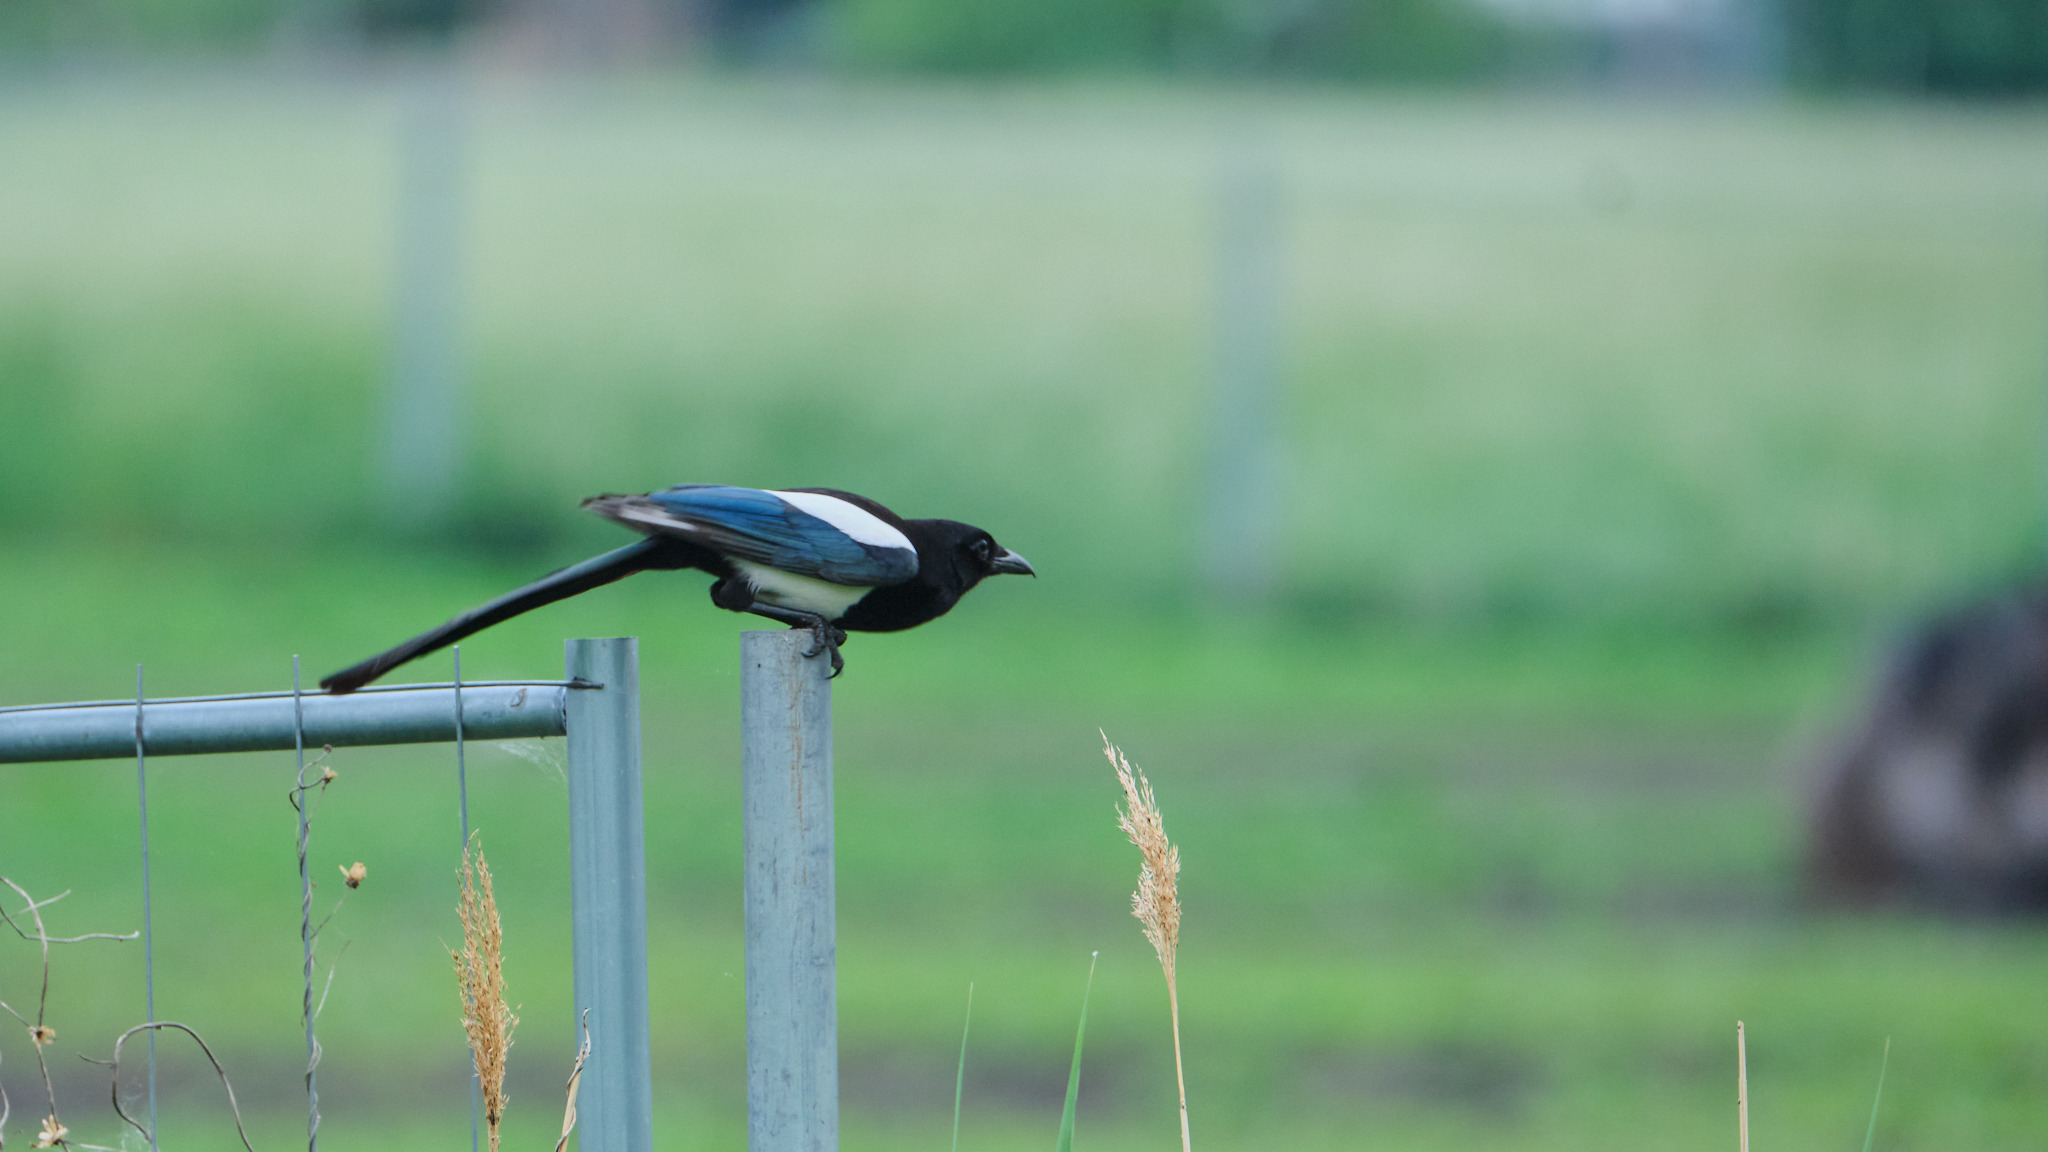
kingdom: Animalia
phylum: Chordata
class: Aves
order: Passeriformes
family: Corvidae
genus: Pica
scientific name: Pica pica
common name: Eurasian magpie
